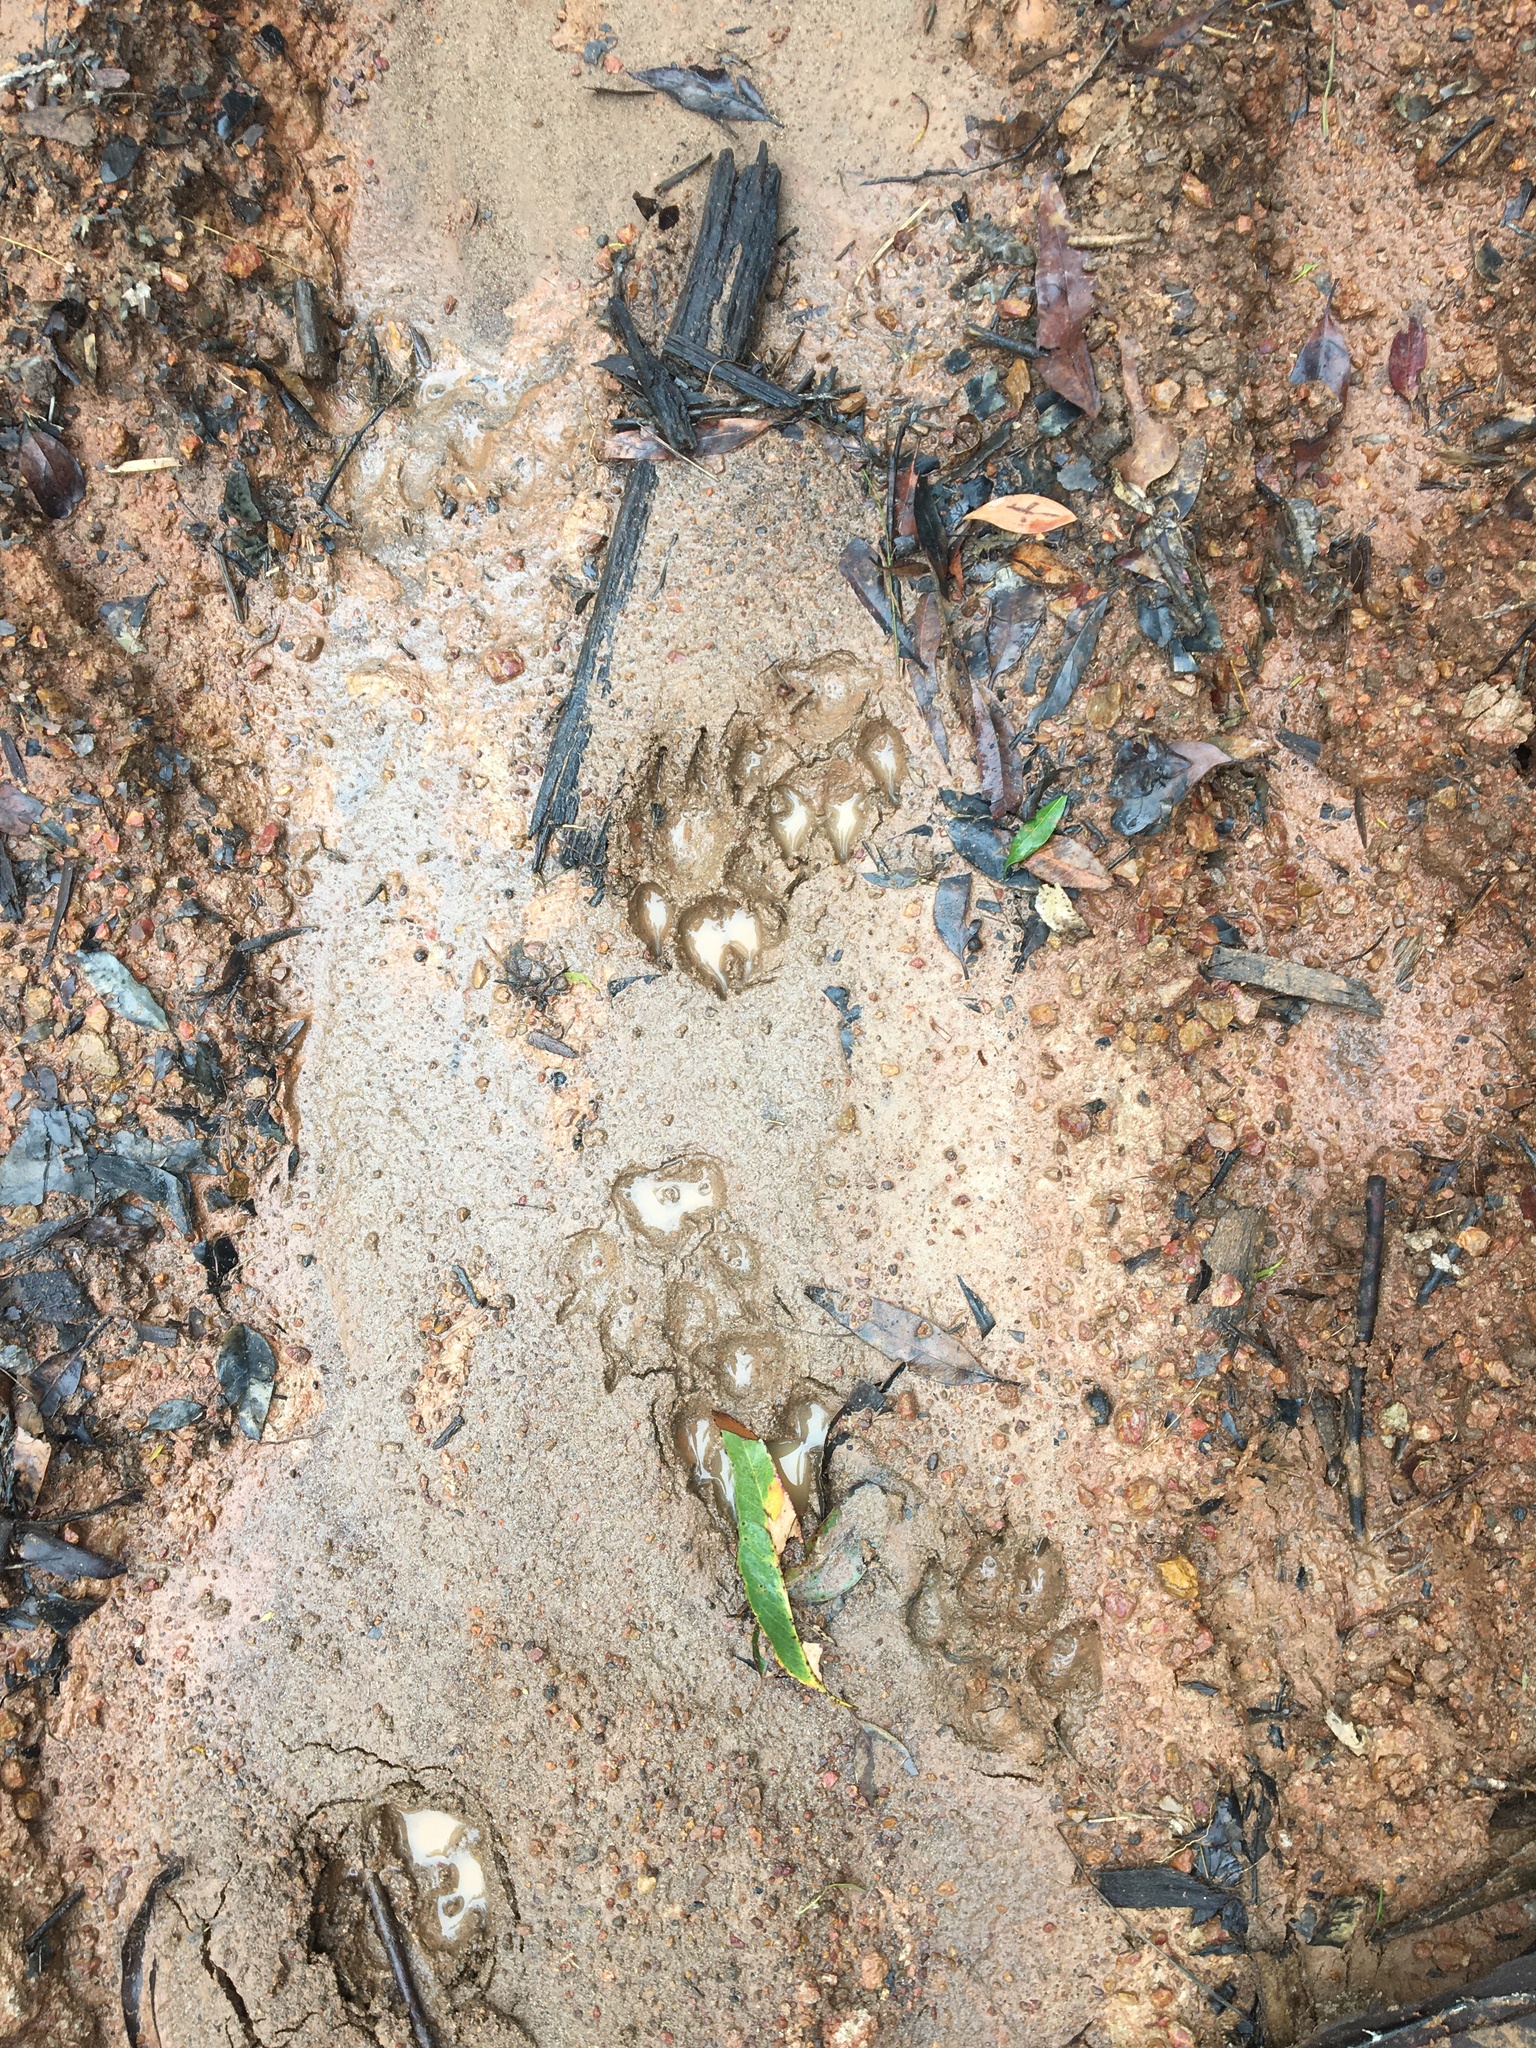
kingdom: Animalia
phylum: Chordata
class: Mammalia
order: Carnivora
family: Canidae
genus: Canis
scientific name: Canis lupus
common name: Gray wolf
